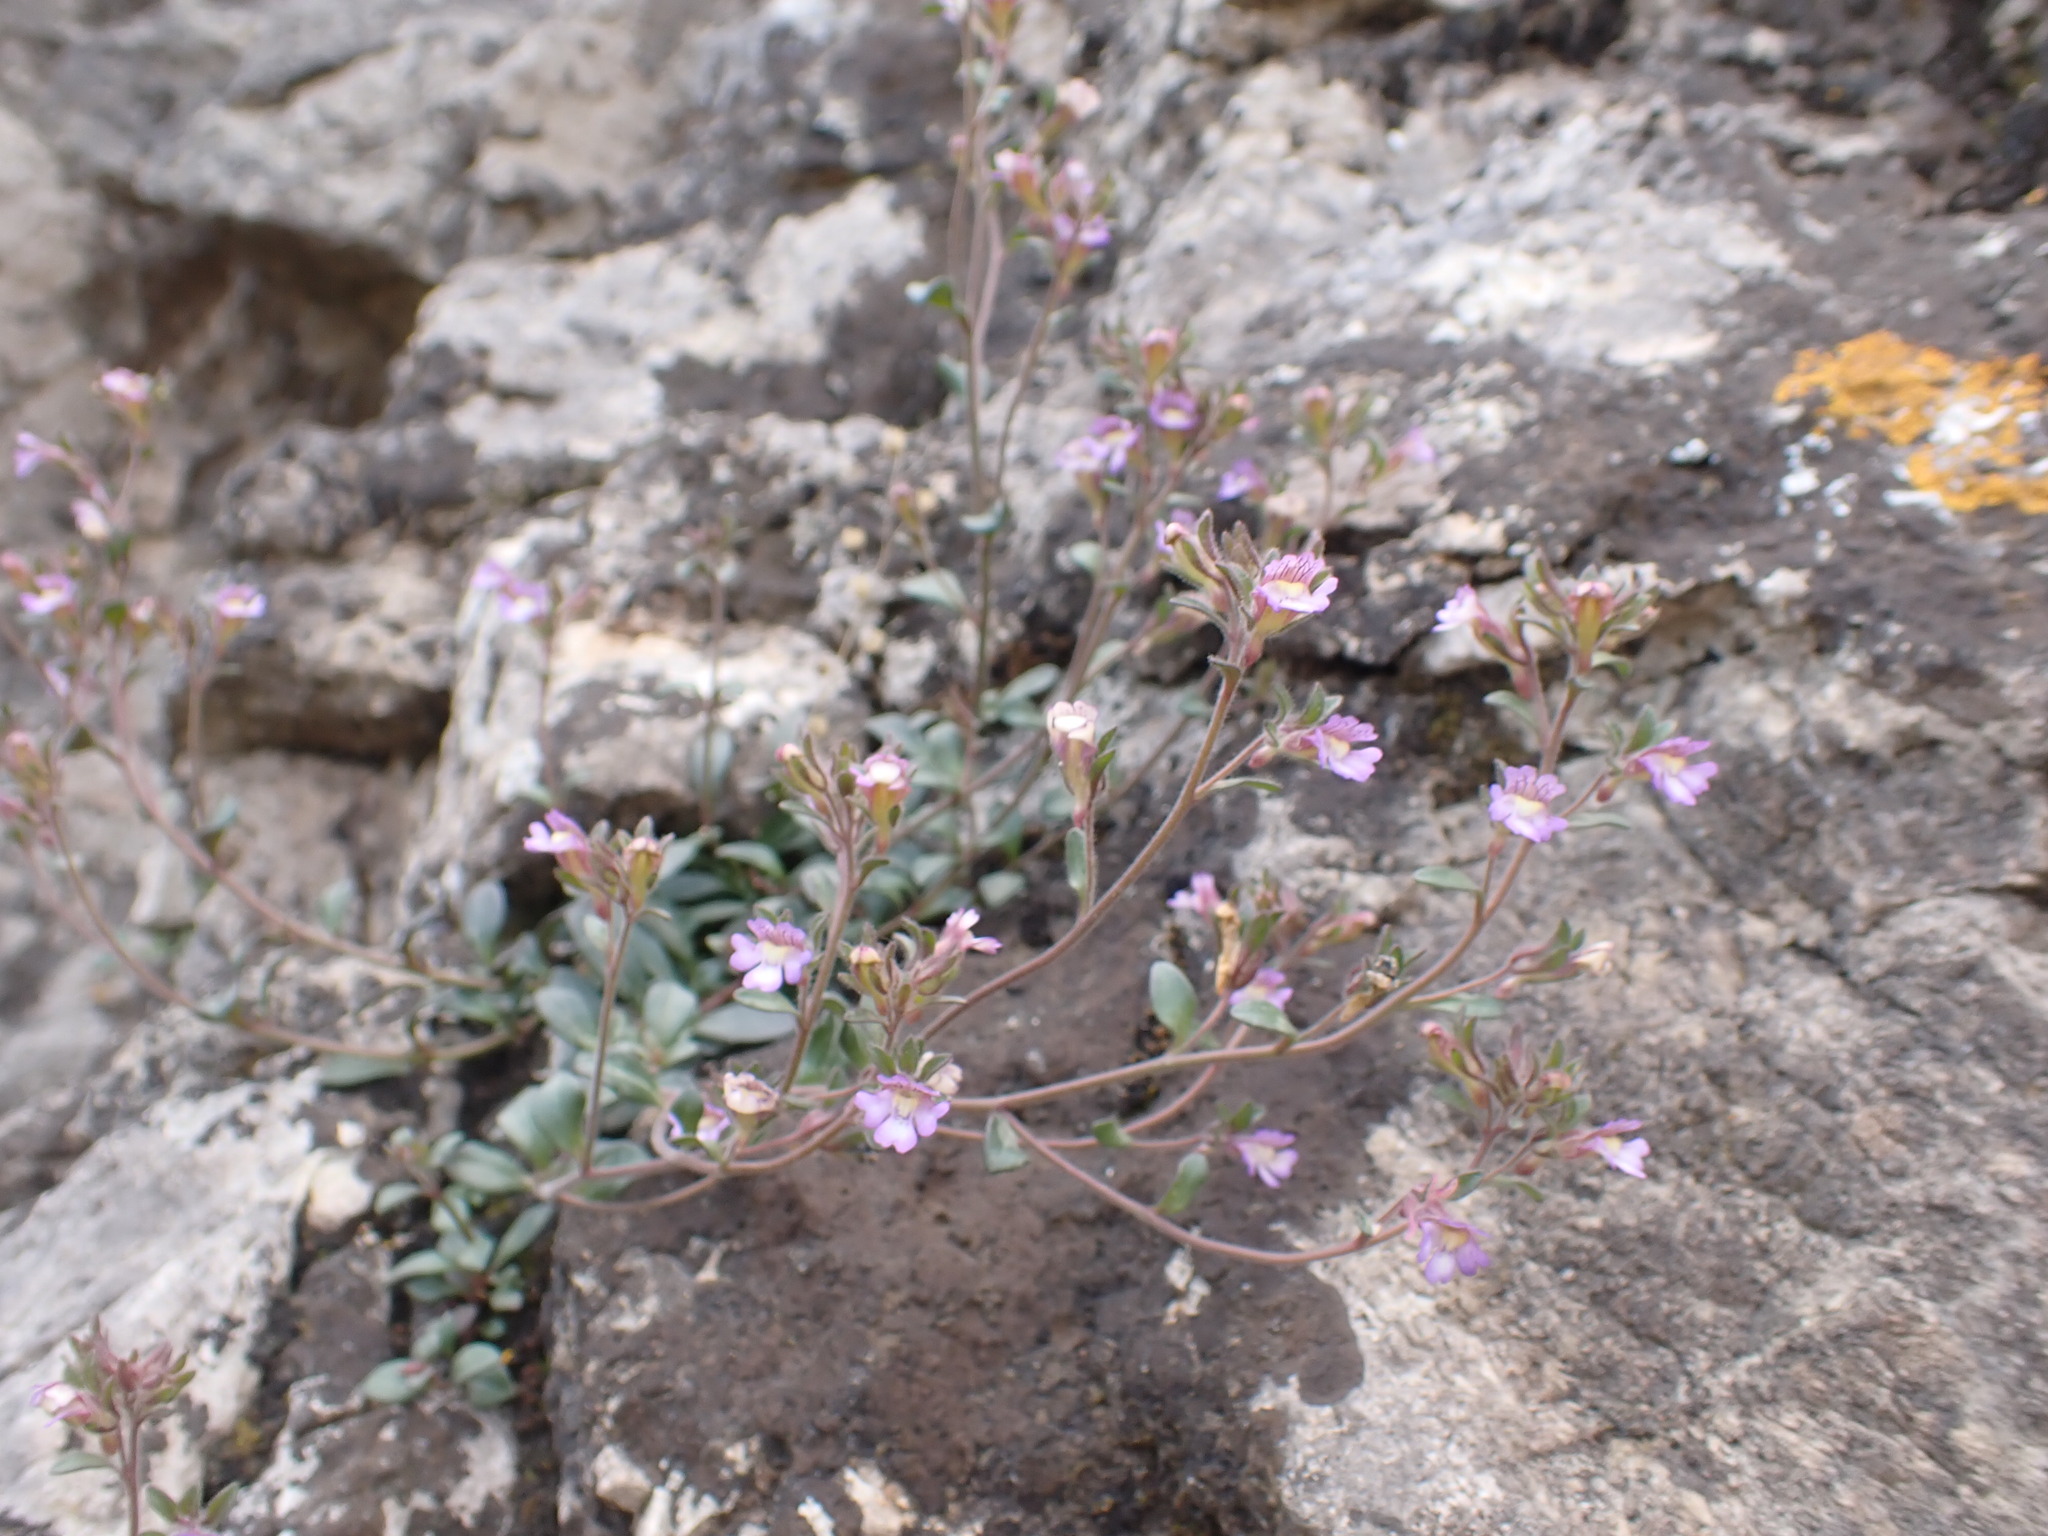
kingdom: Plantae
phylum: Tracheophyta
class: Magnoliopsida
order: Lamiales
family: Plantaginaceae
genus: Chaenorhinum
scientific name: Chaenorhinum origanifolium
